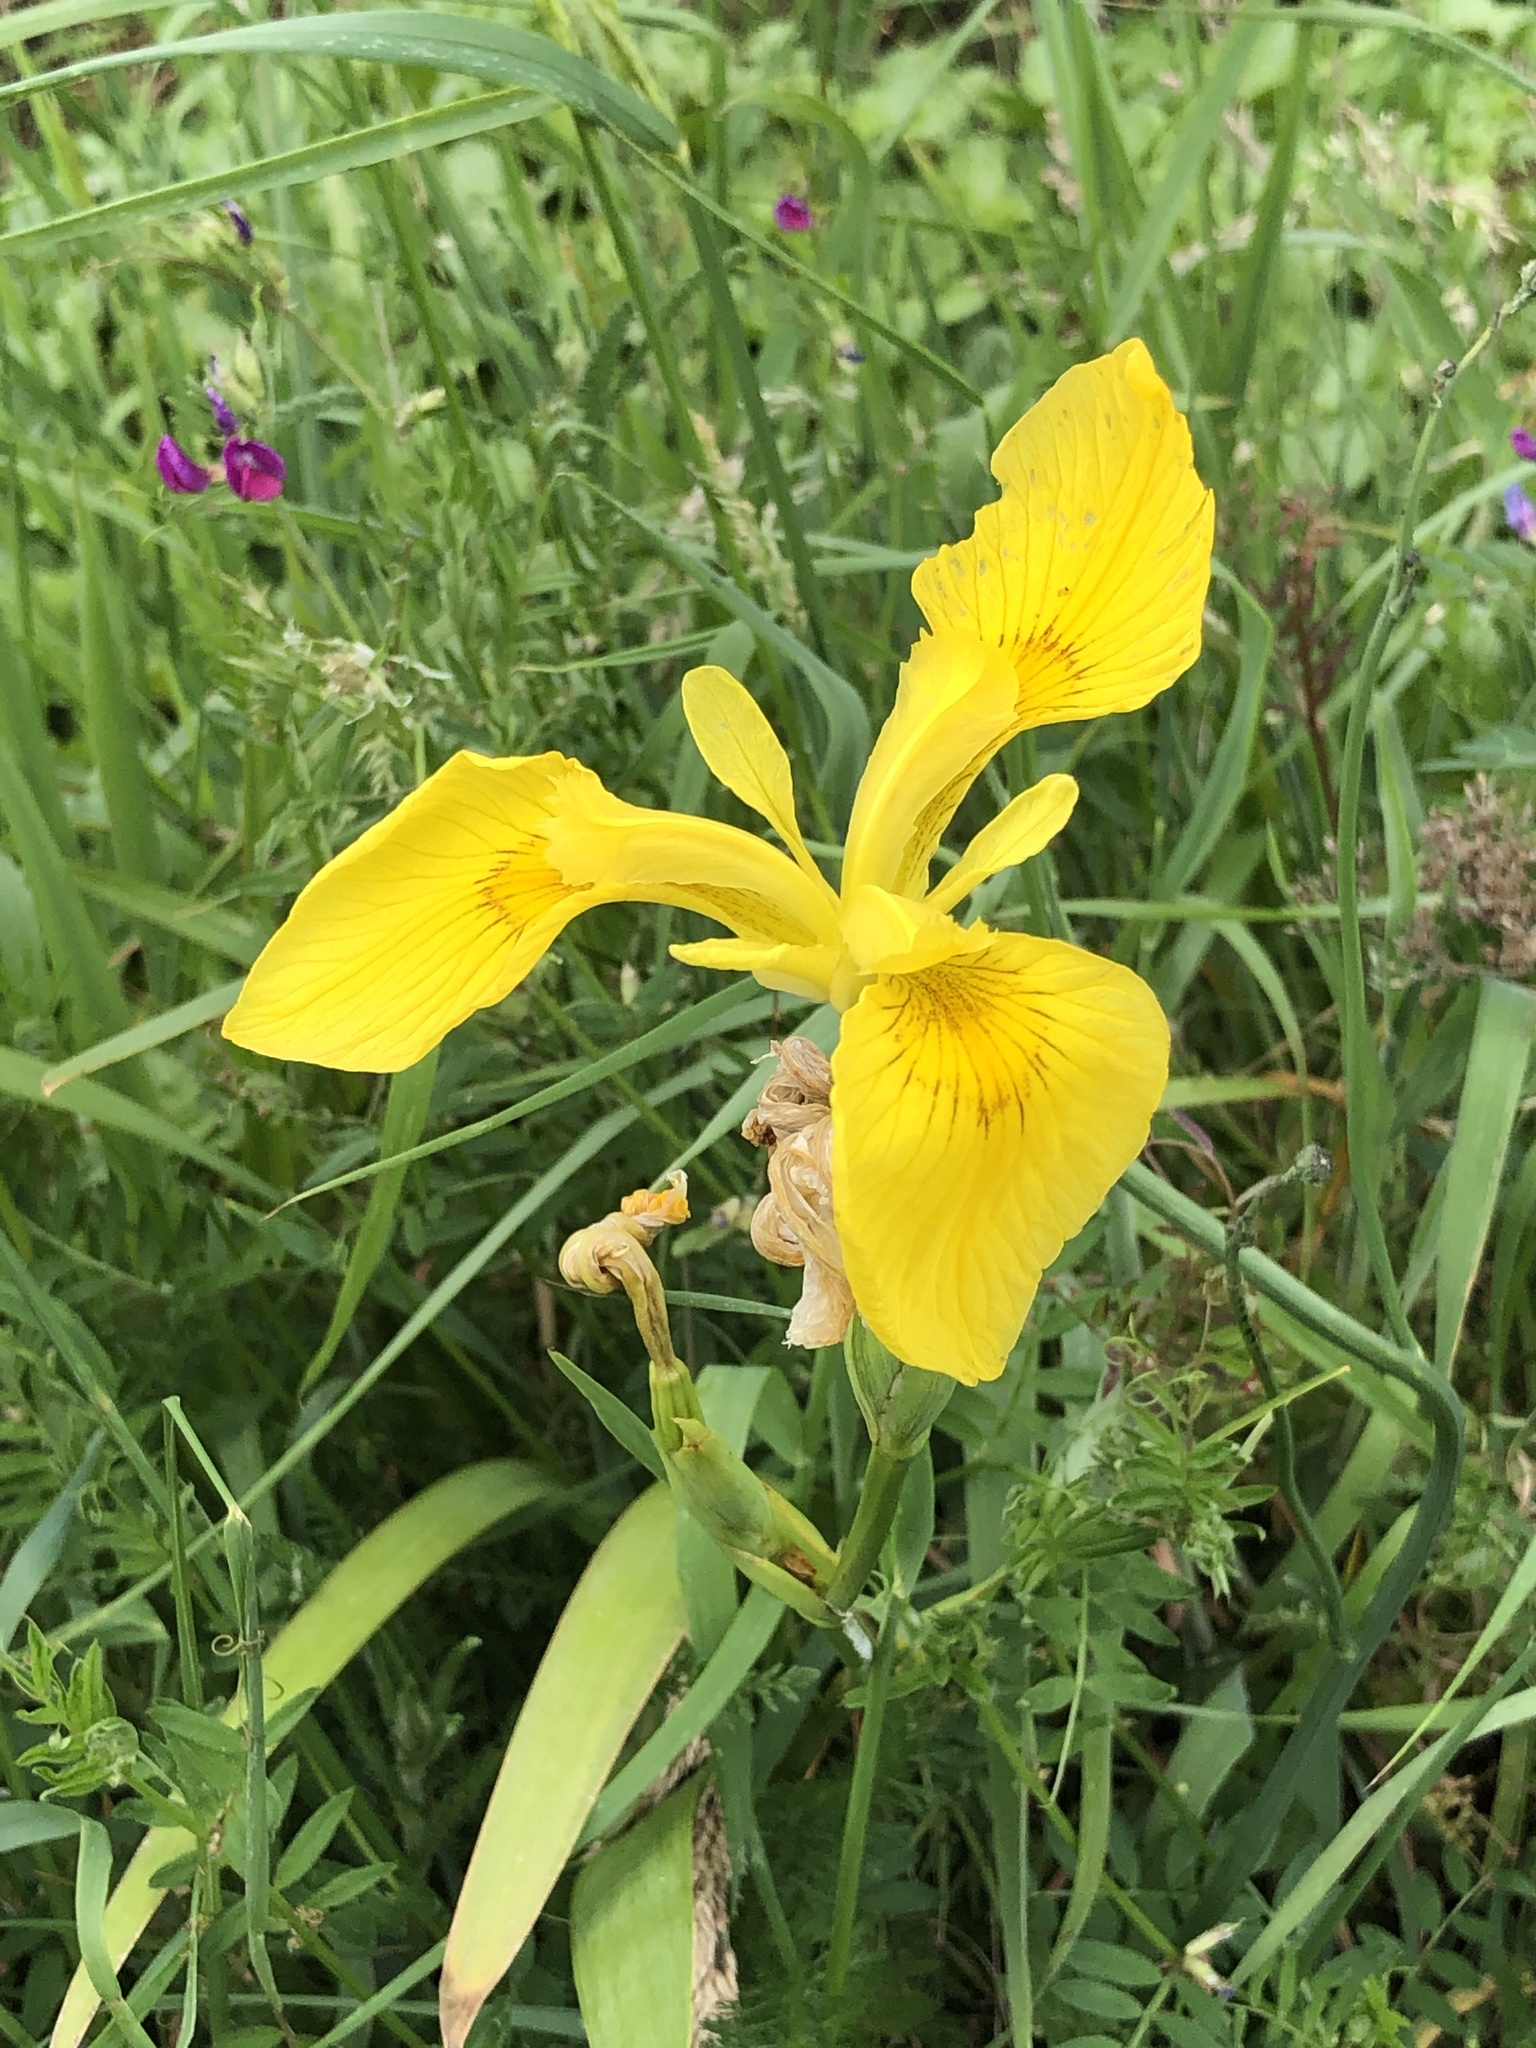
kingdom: Plantae
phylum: Tracheophyta
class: Liliopsida
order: Asparagales
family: Iridaceae
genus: Iris
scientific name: Iris pseudacorus
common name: Yellow flag
